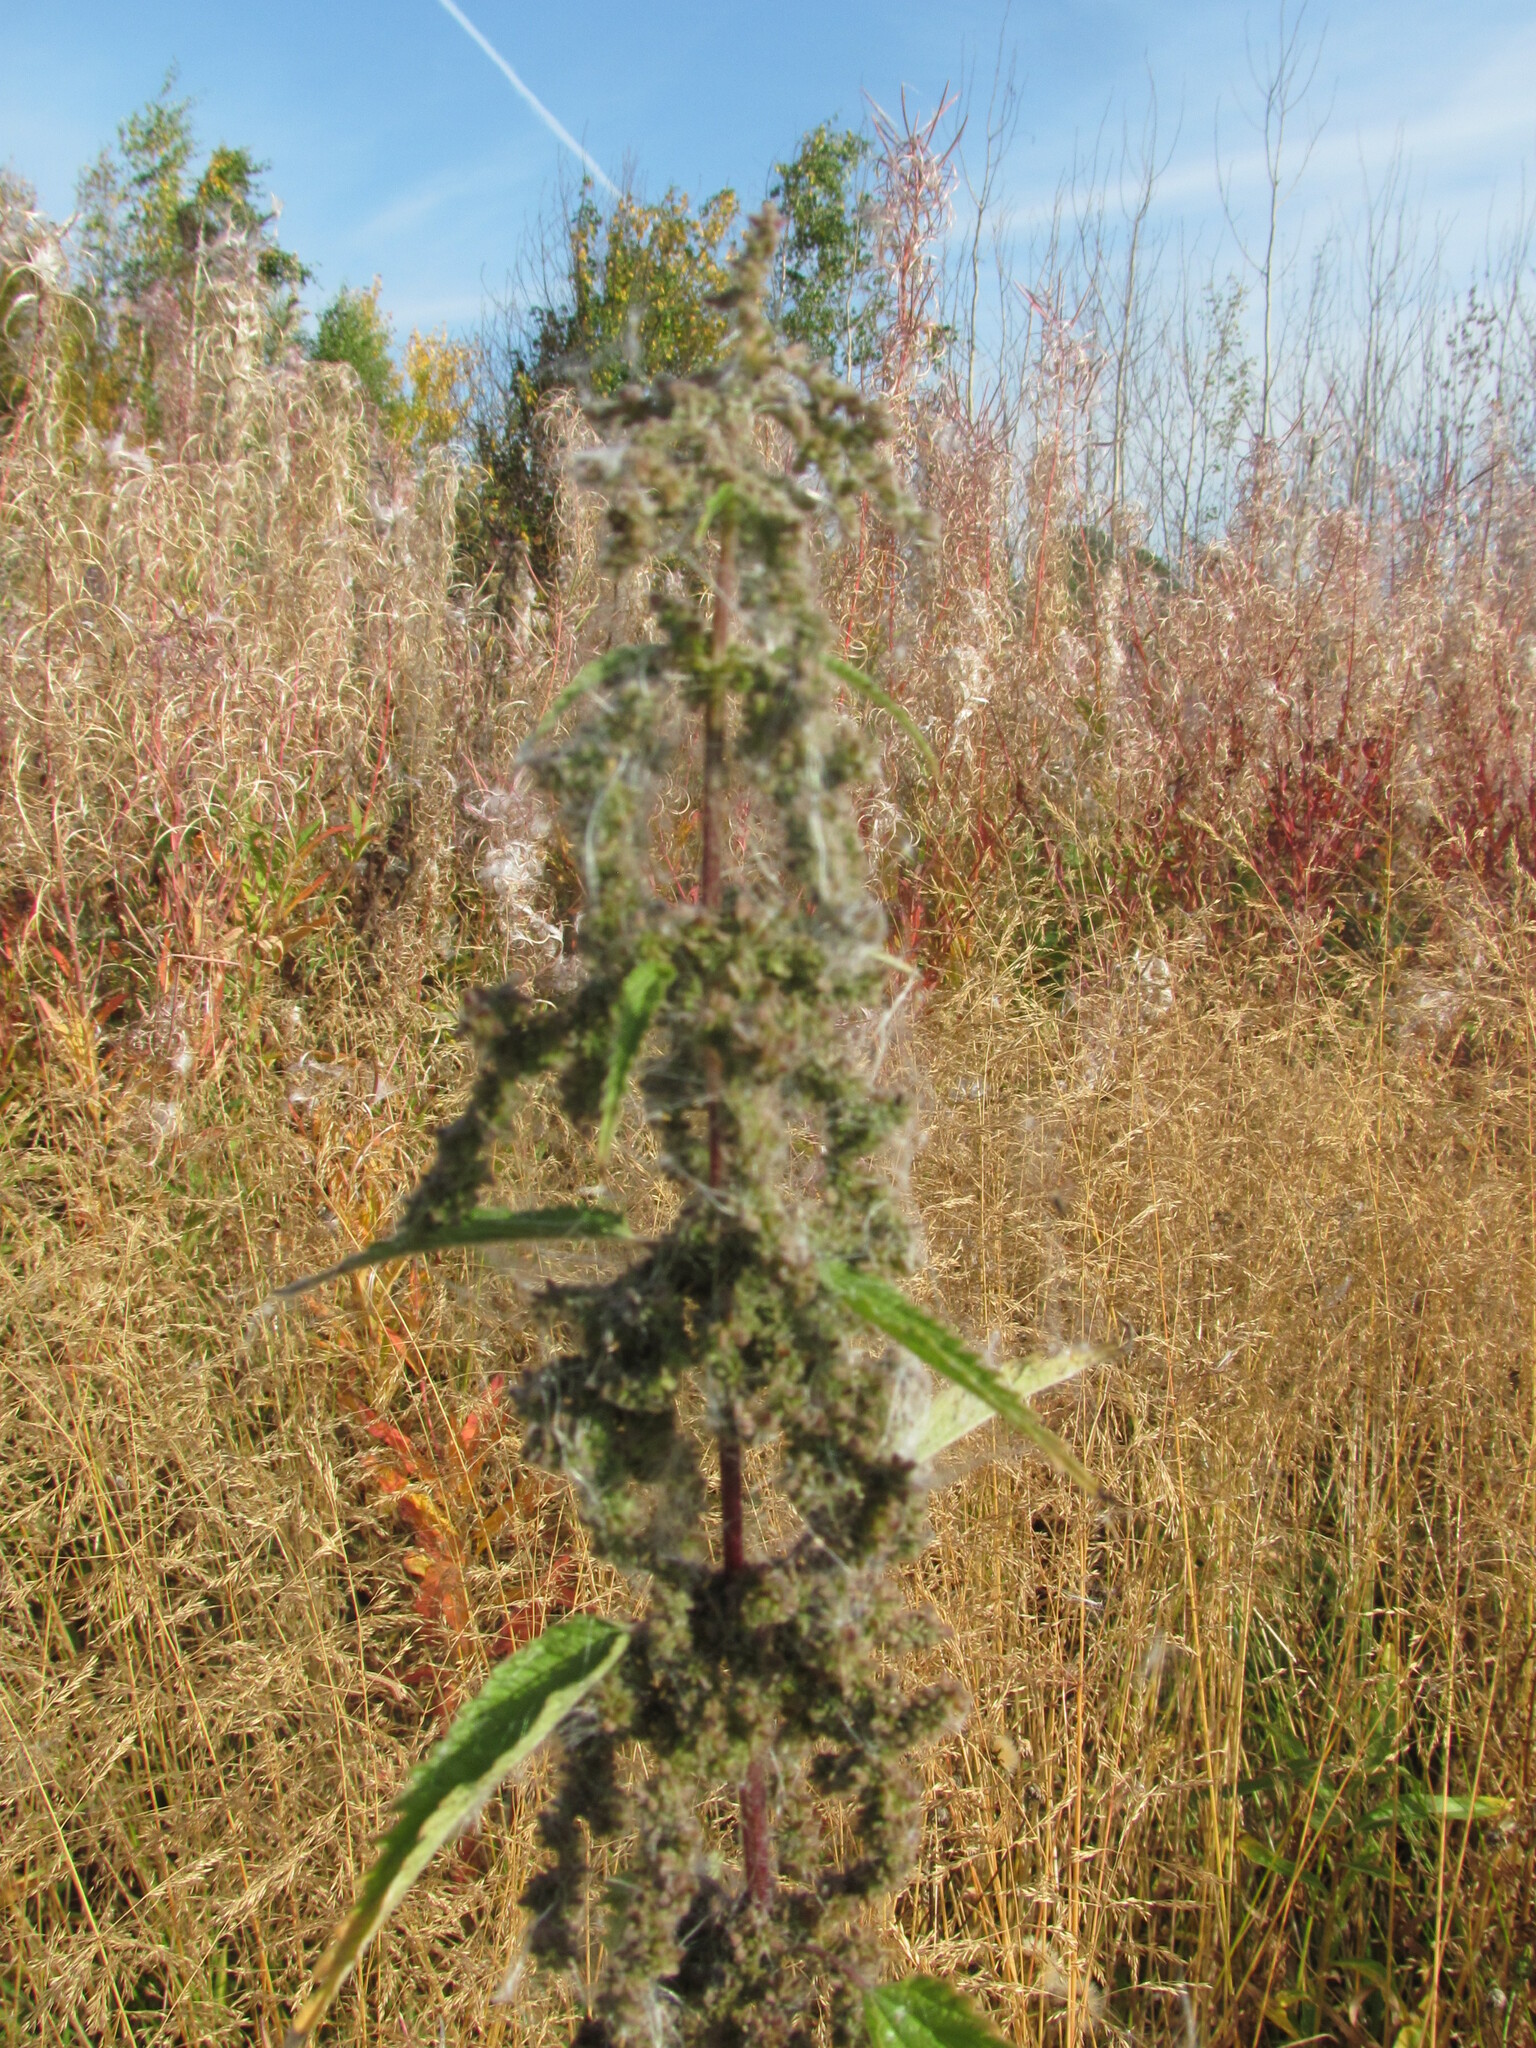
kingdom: Plantae
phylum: Tracheophyta
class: Magnoliopsida
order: Rosales
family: Urticaceae
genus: Urtica
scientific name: Urtica dioica
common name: Common nettle
